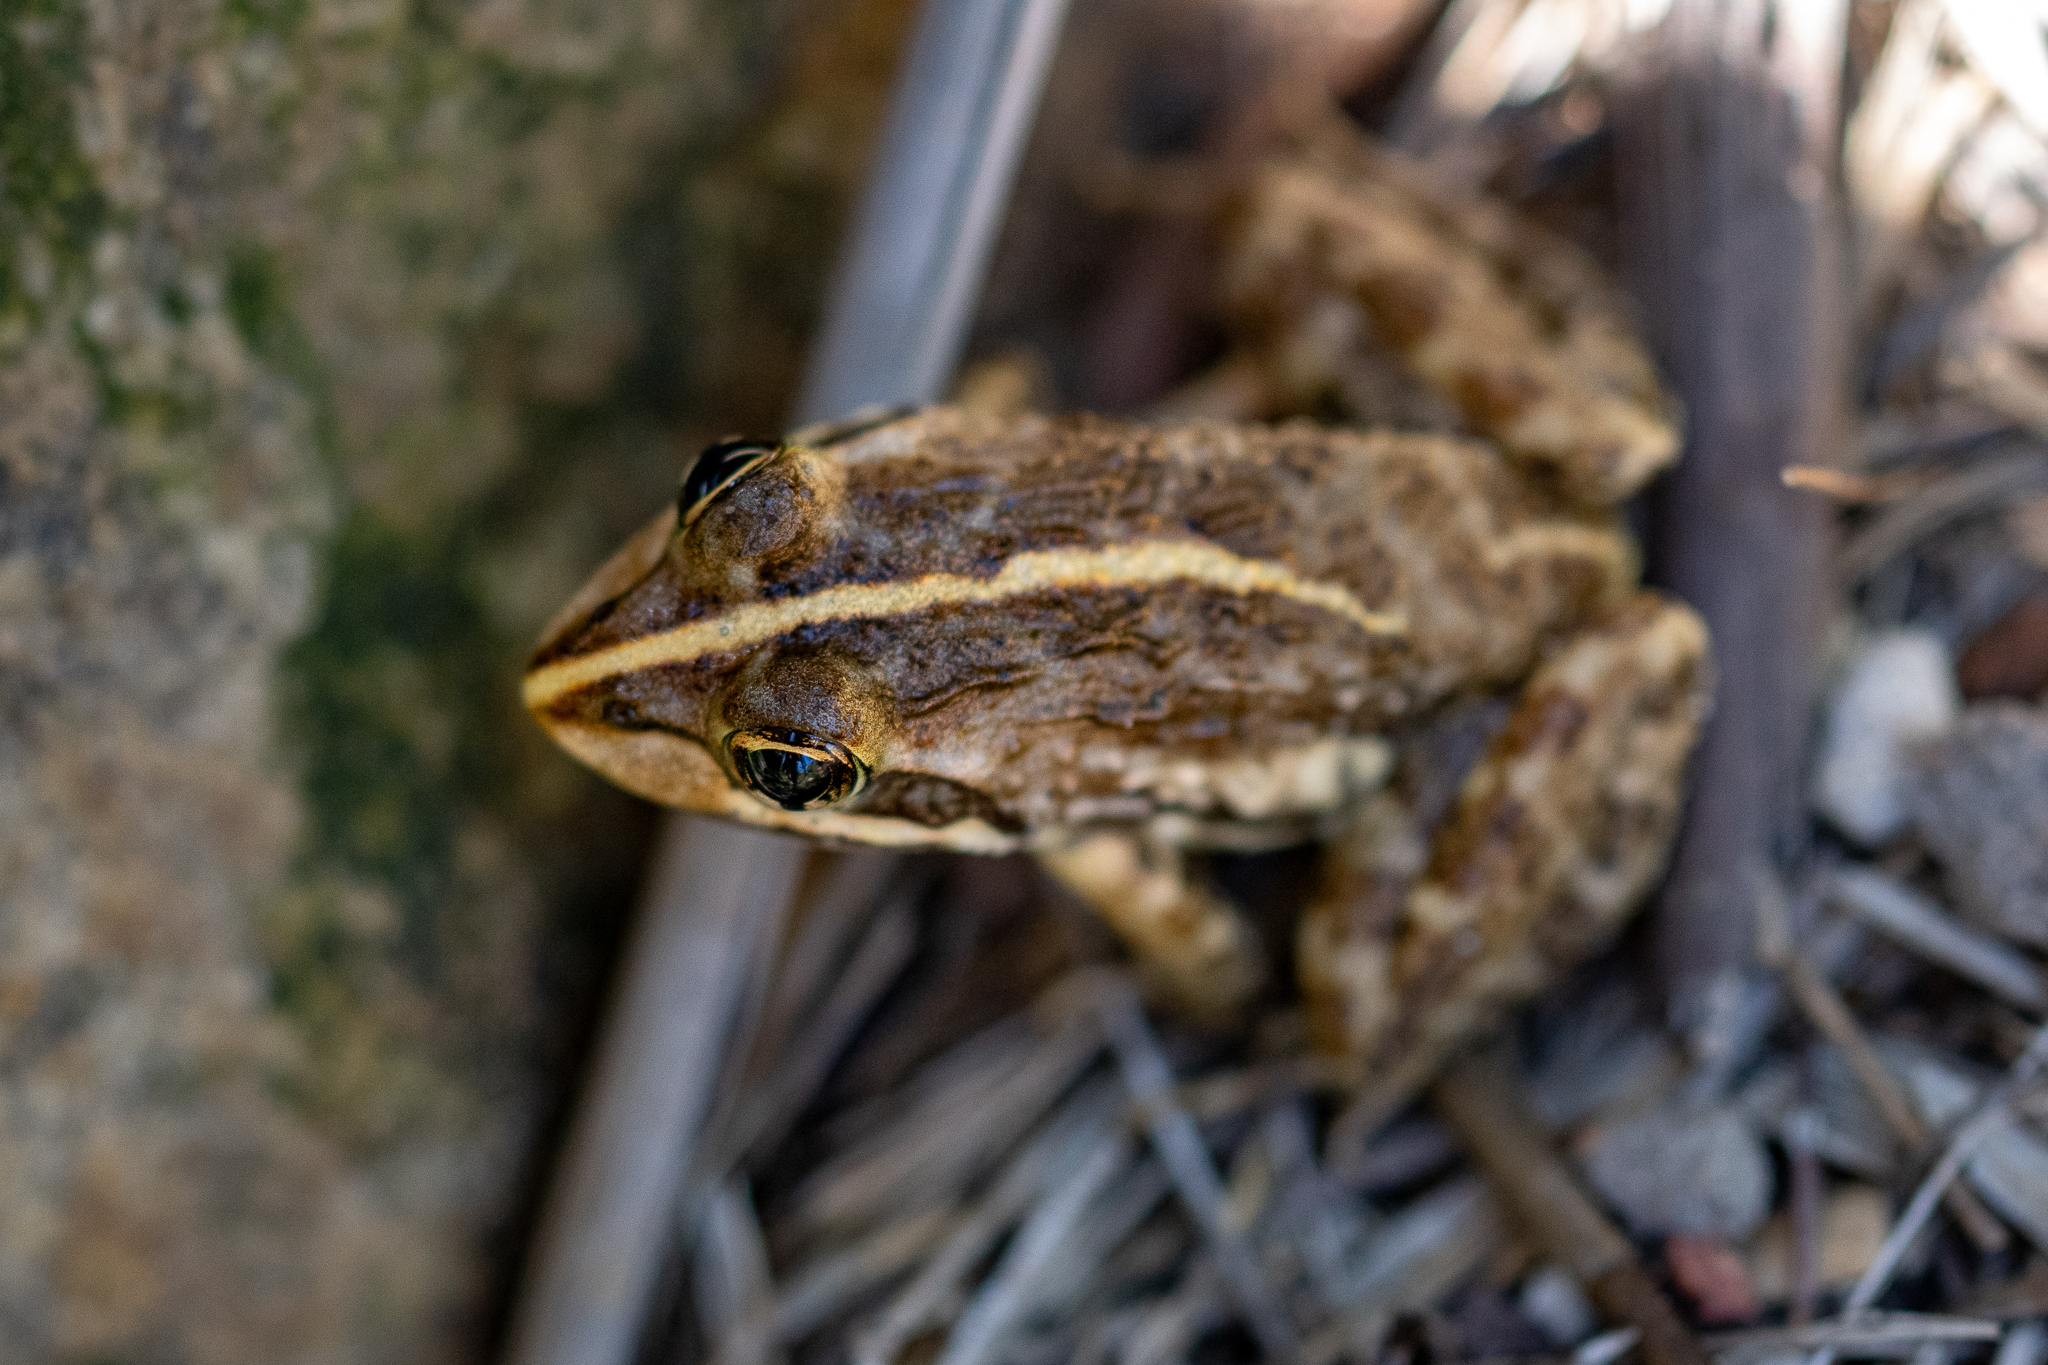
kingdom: Animalia
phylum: Chordata
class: Amphibia
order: Anura
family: Pyxicephalidae
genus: Amietia
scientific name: Amietia fuscigula
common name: Cape rana
